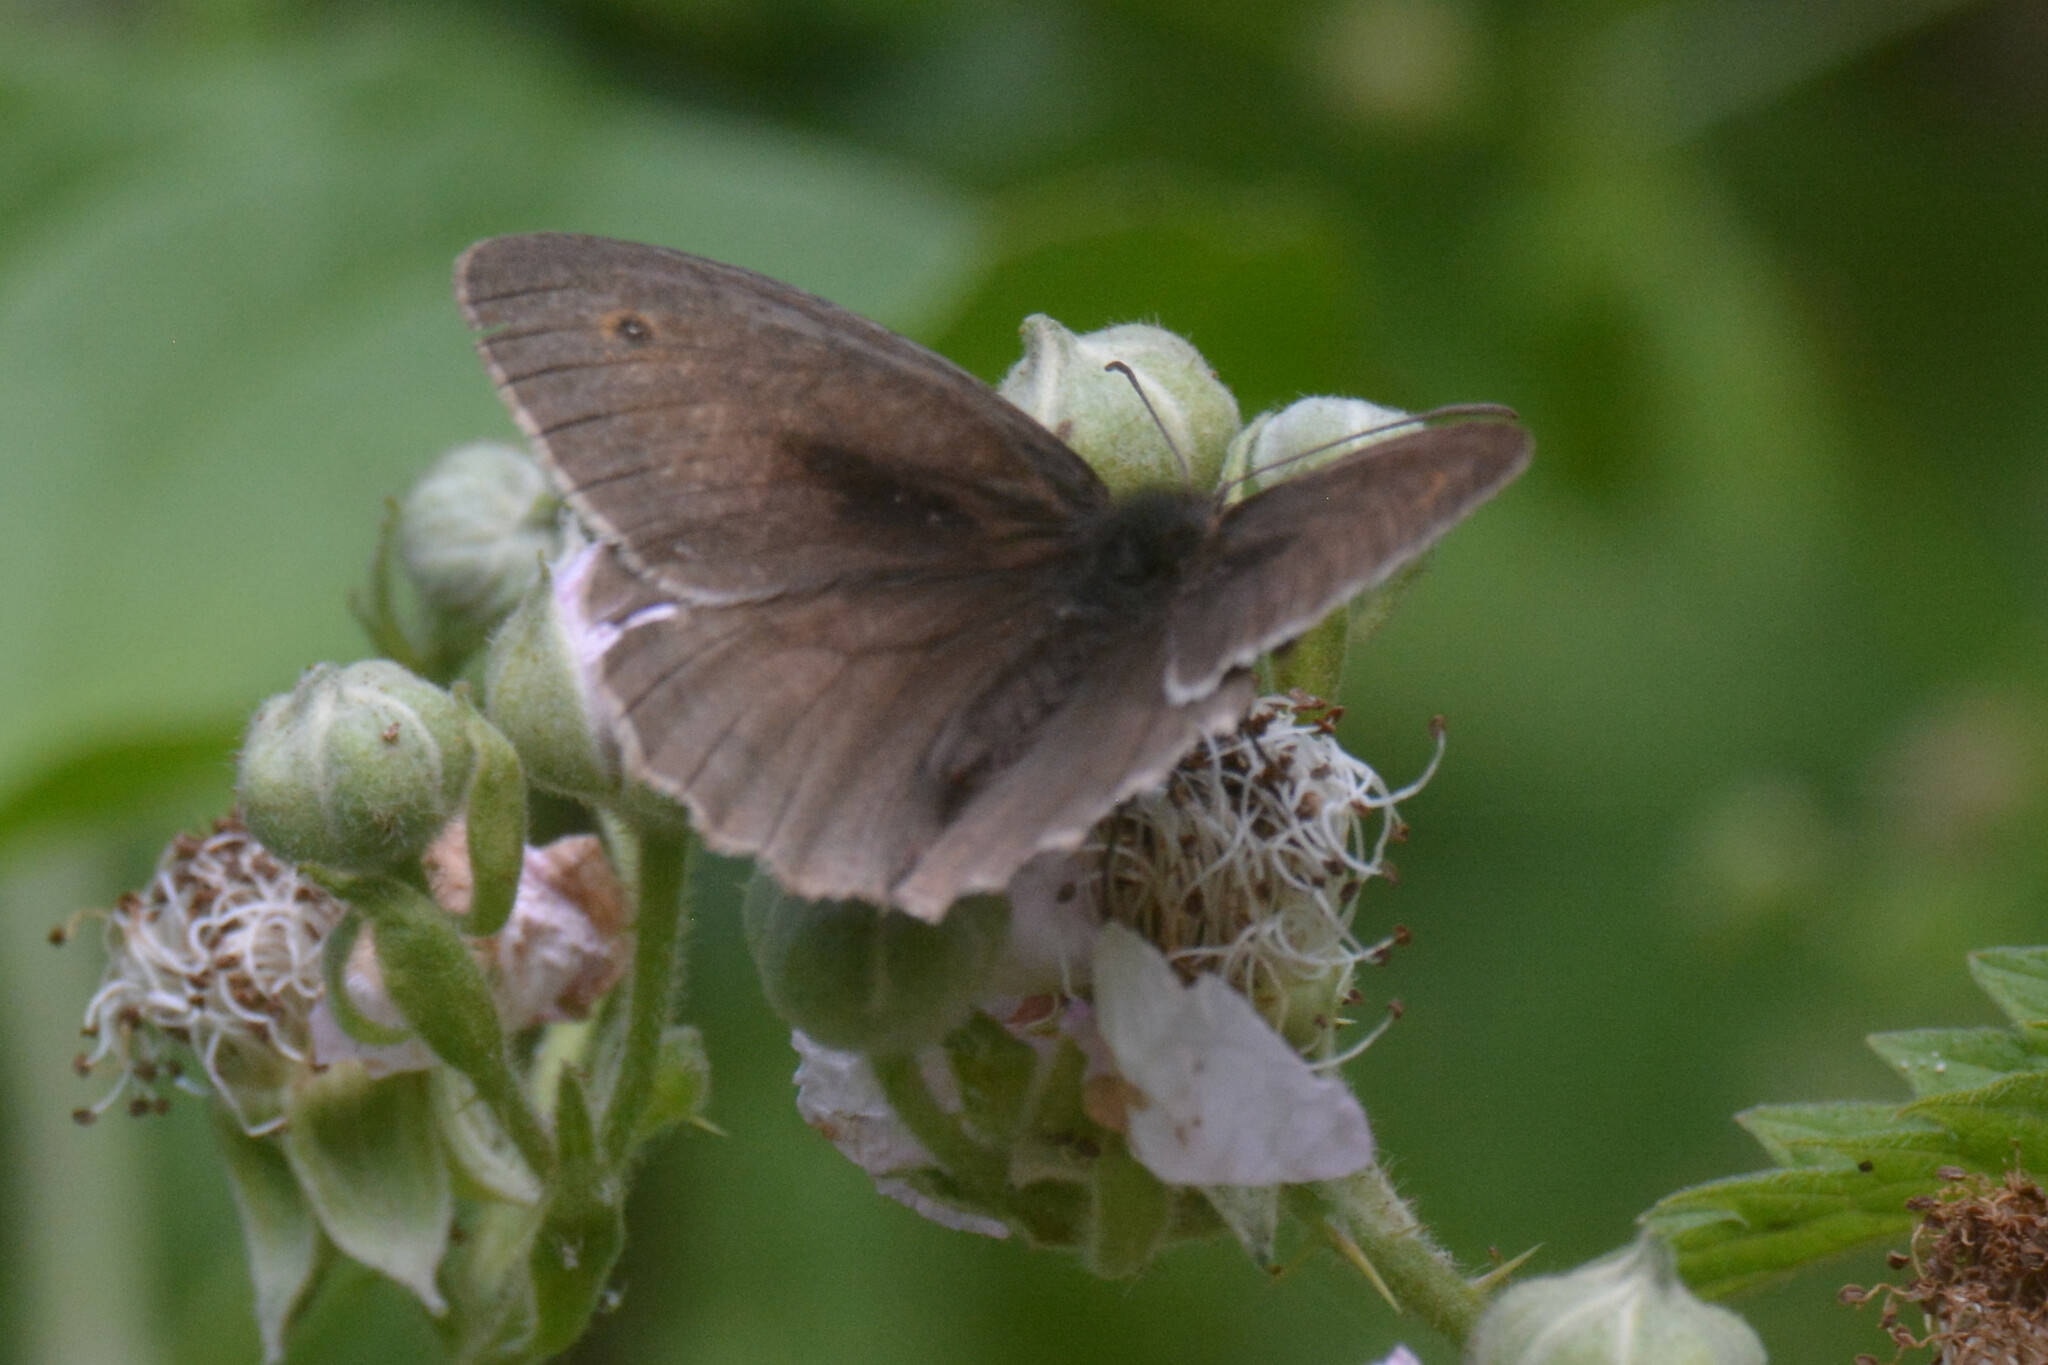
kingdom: Animalia
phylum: Arthropoda
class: Insecta
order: Lepidoptera
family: Nymphalidae
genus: Aphantopus
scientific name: Aphantopus hyperantus
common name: Ringlet
